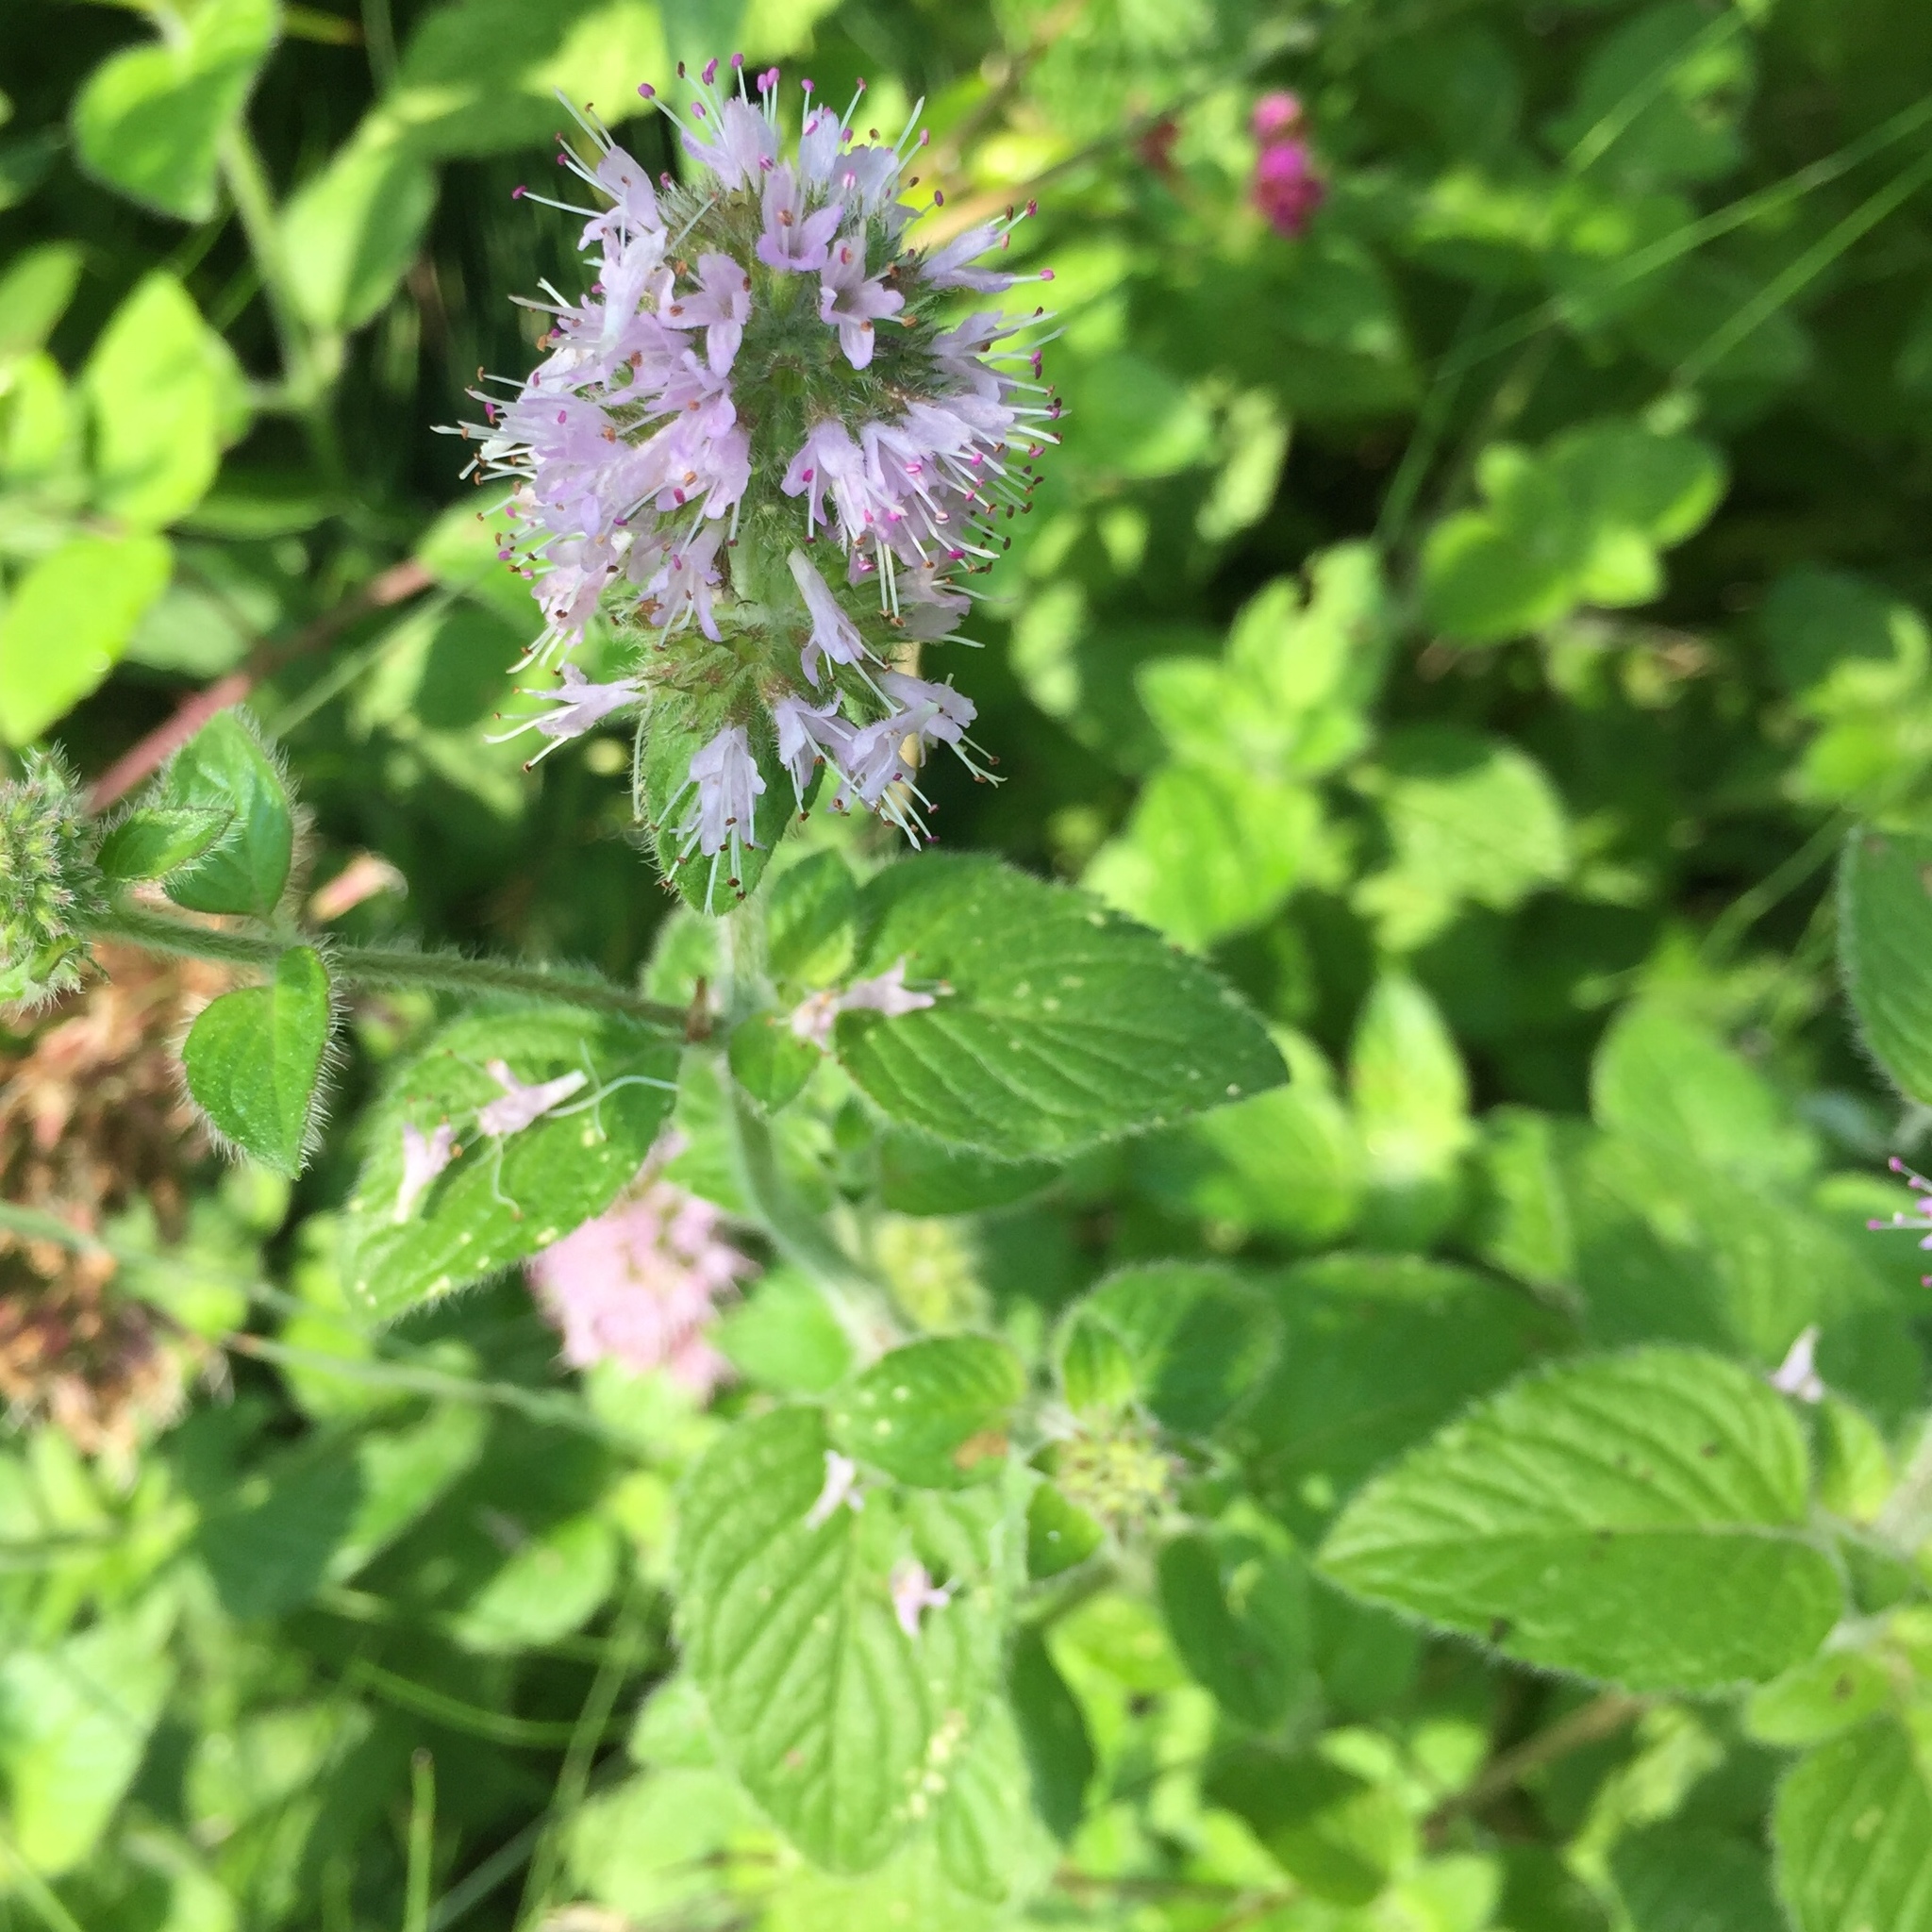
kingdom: Plantae
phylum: Tracheophyta
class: Magnoliopsida
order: Lamiales
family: Lamiaceae
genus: Mentha
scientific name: Mentha aquatica
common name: Water mint
